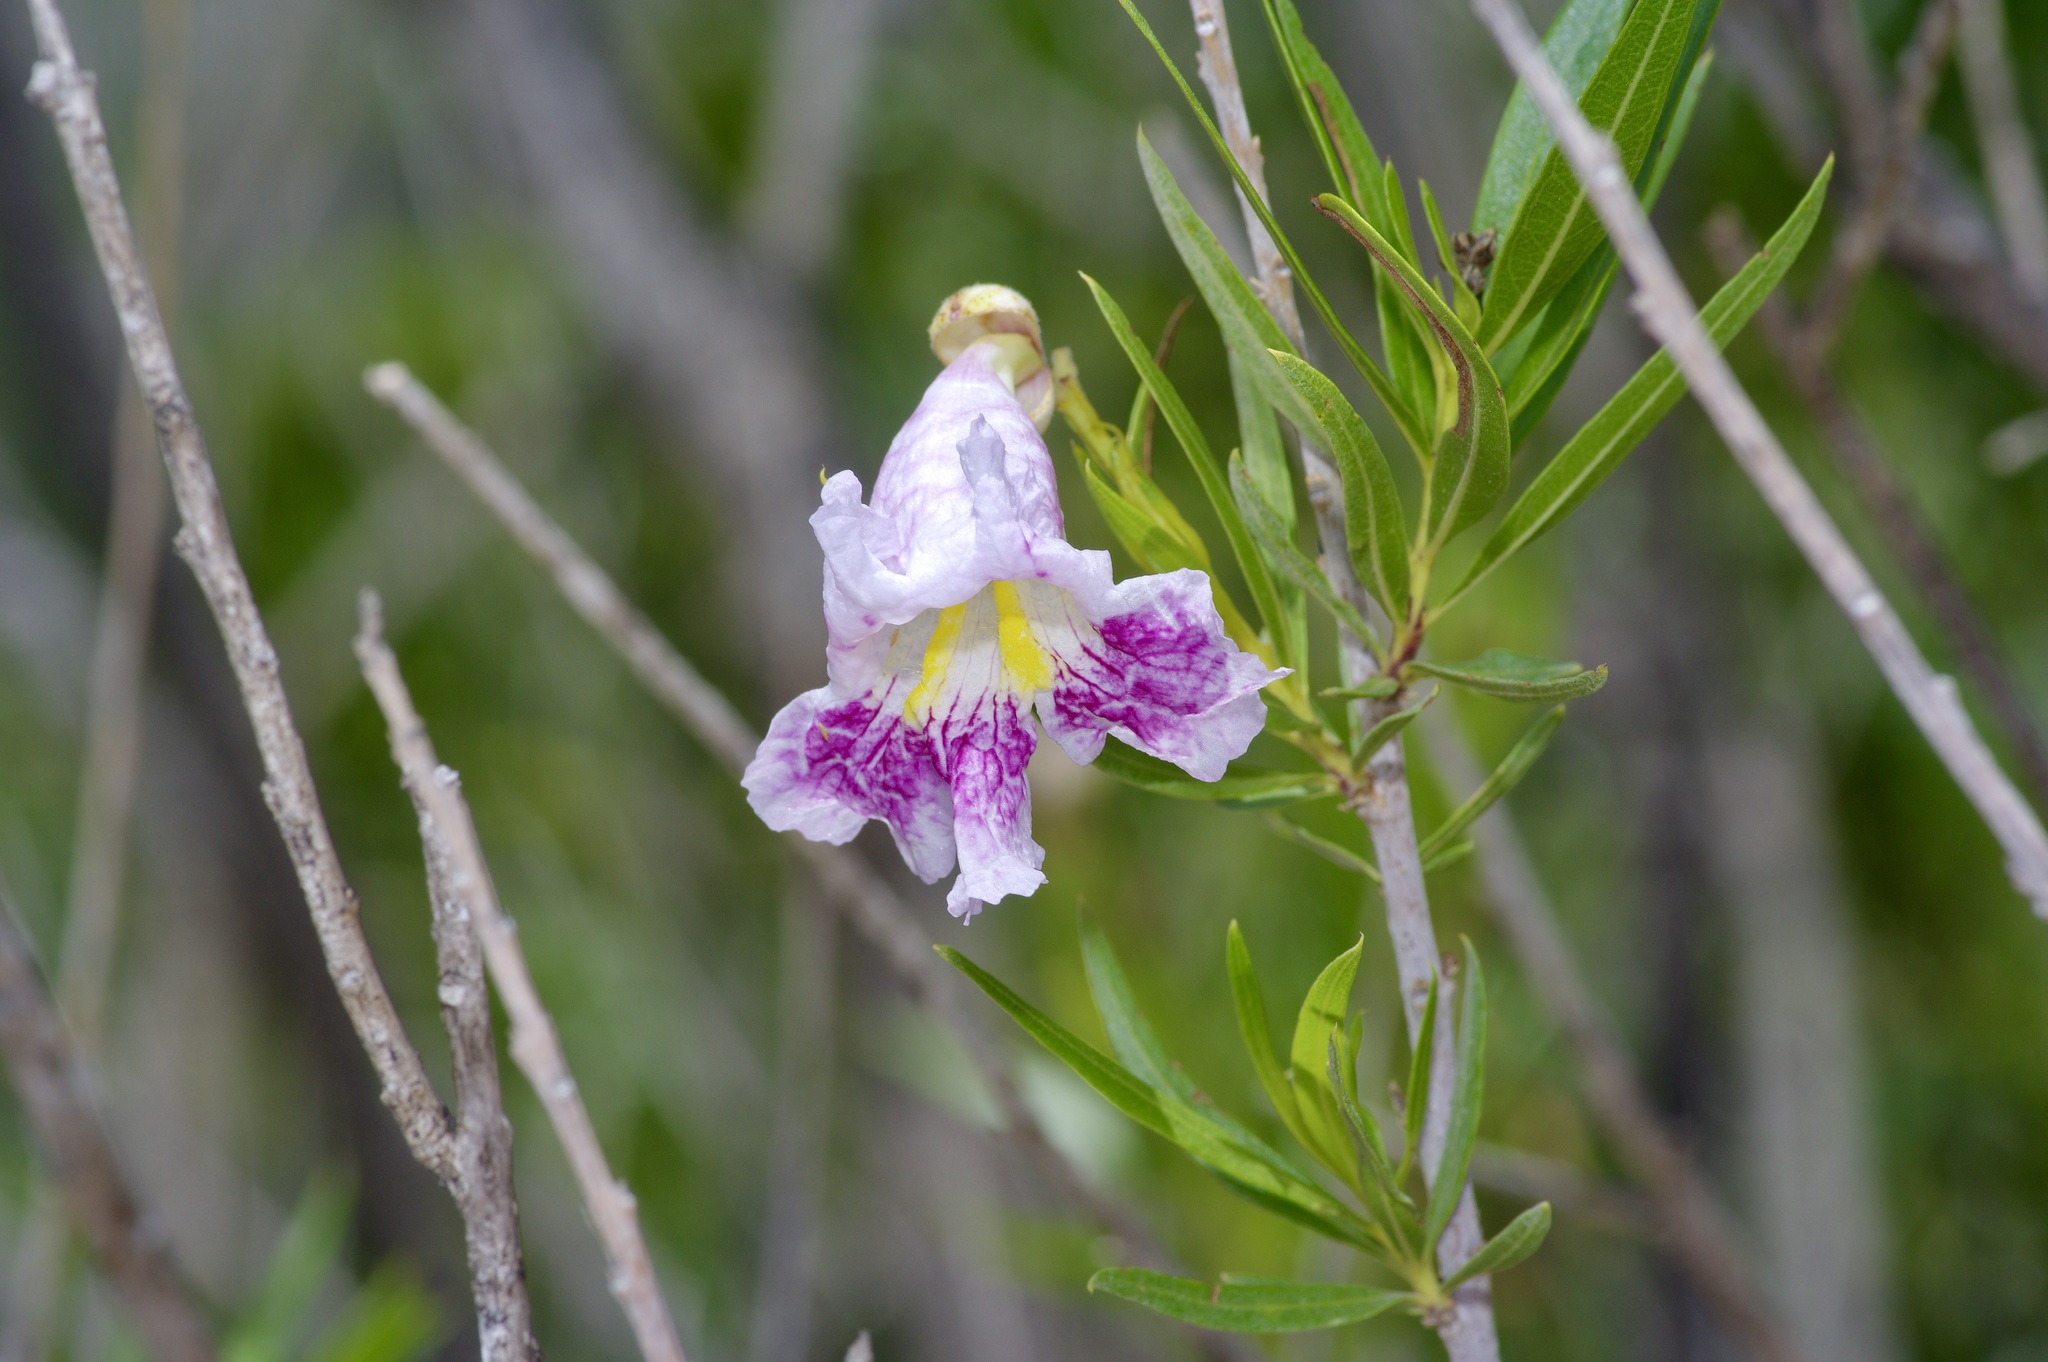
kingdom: Plantae
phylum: Tracheophyta
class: Magnoliopsida
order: Lamiales
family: Bignoniaceae
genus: Chilopsis
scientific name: Chilopsis linearis
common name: Desert-willow
